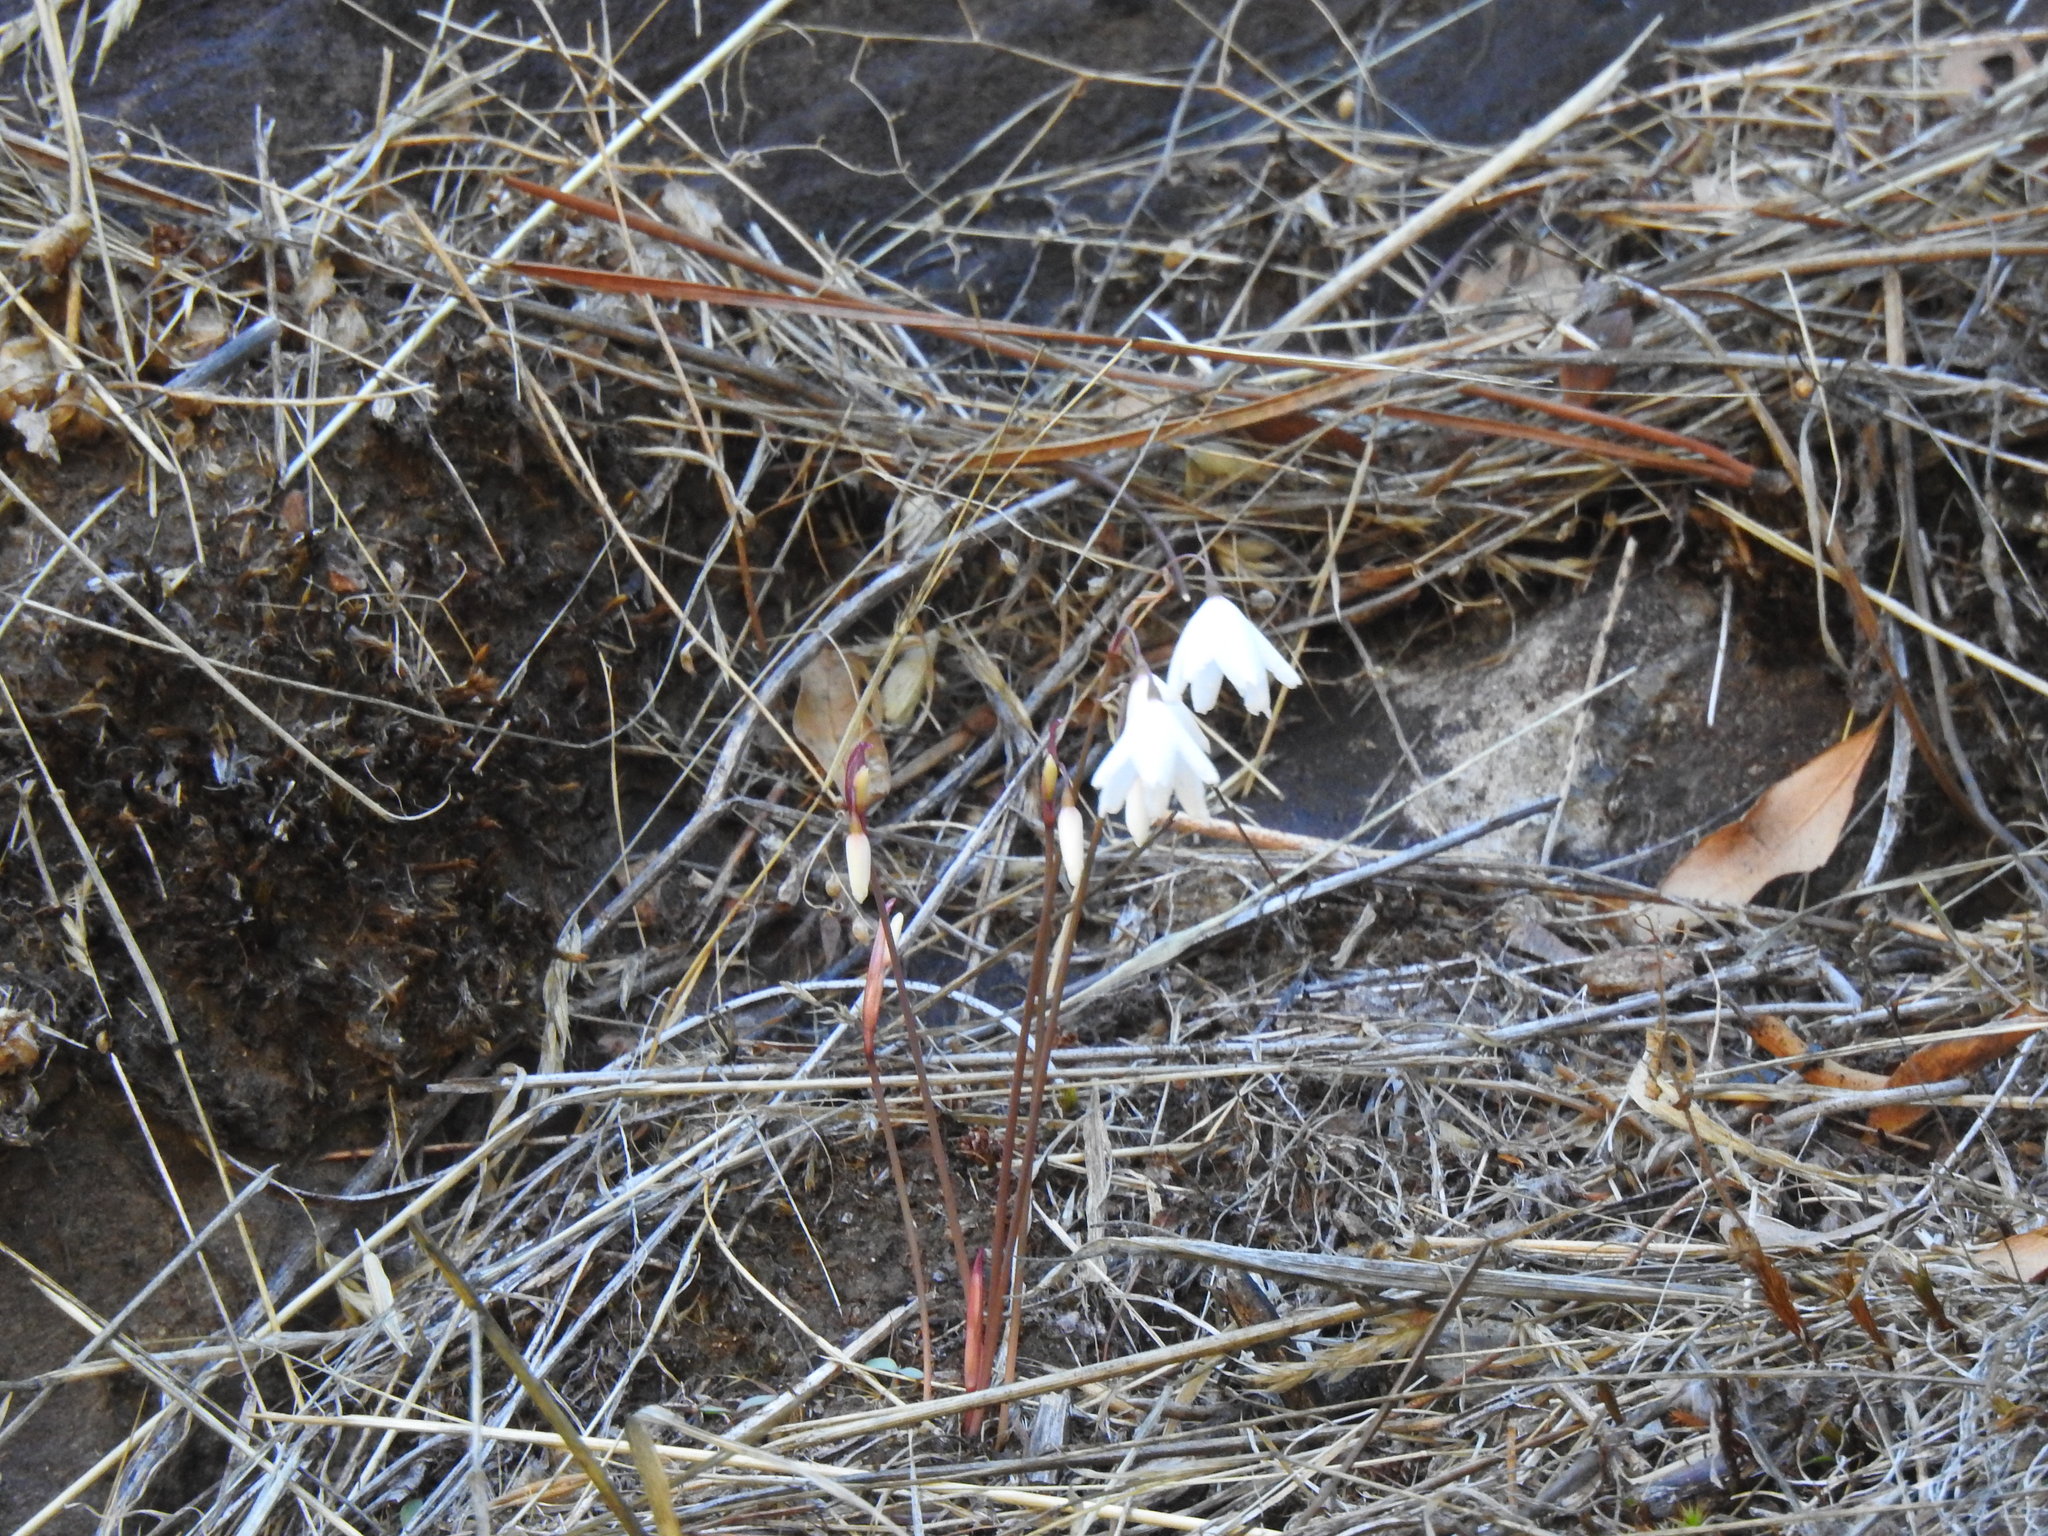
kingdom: Plantae
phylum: Tracheophyta
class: Liliopsida
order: Asparagales
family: Amaryllidaceae
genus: Acis
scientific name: Acis autumnalis
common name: Autumn snowflake
